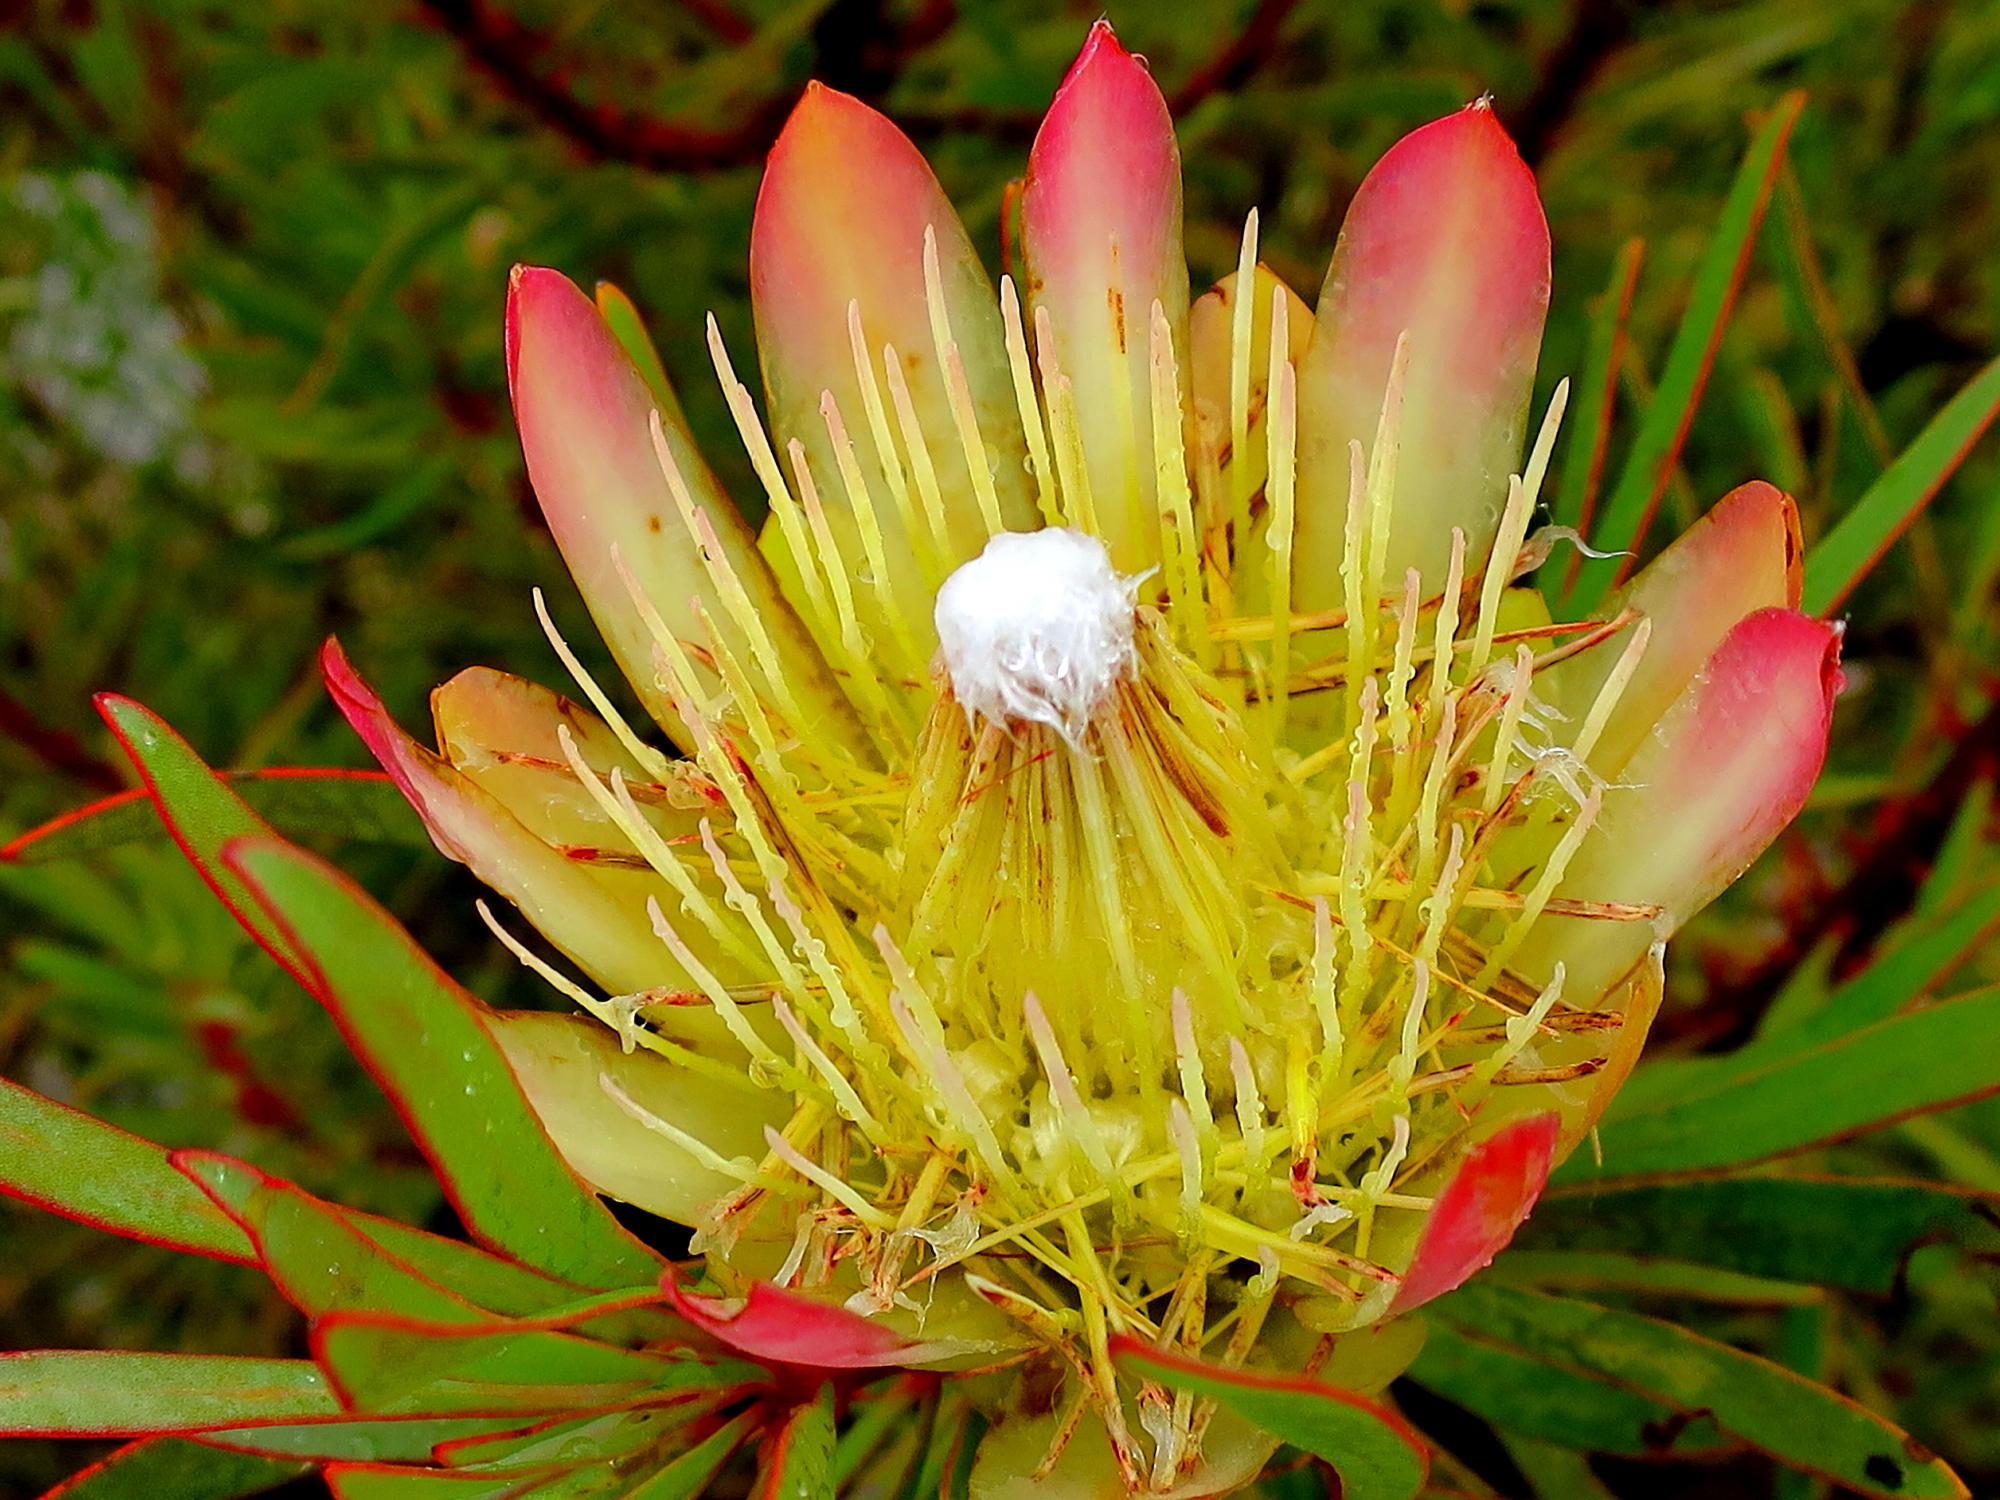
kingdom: Plantae
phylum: Tracheophyta
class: Magnoliopsida
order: Proteales
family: Proteaceae
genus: Protea
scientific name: Protea repens
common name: Sugarbush
